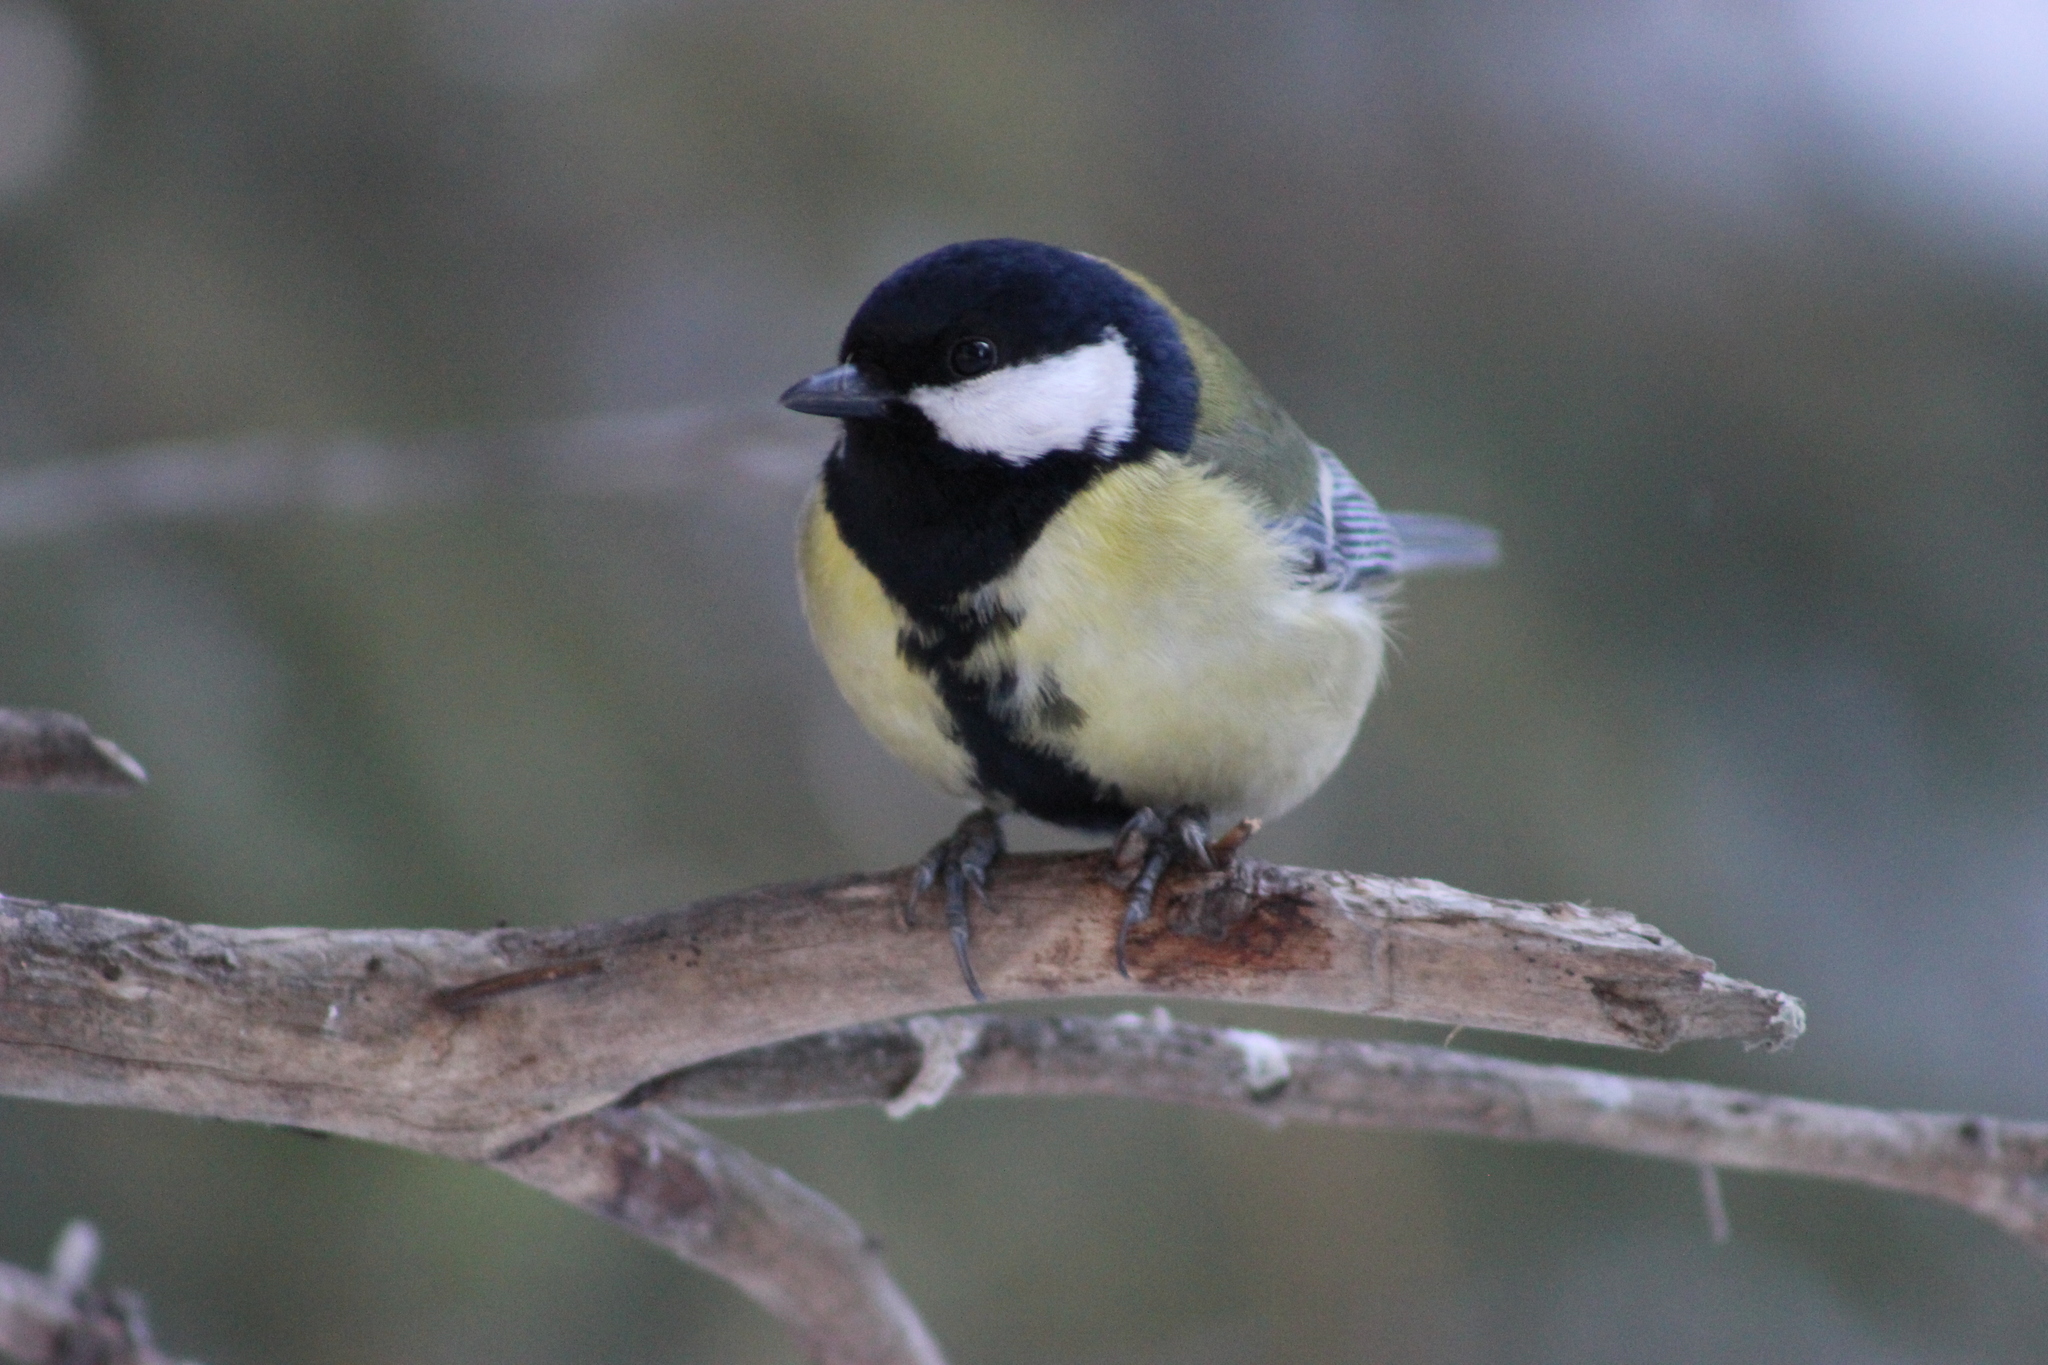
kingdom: Animalia
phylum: Chordata
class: Aves
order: Passeriformes
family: Paridae
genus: Parus
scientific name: Parus major
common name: Great tit
